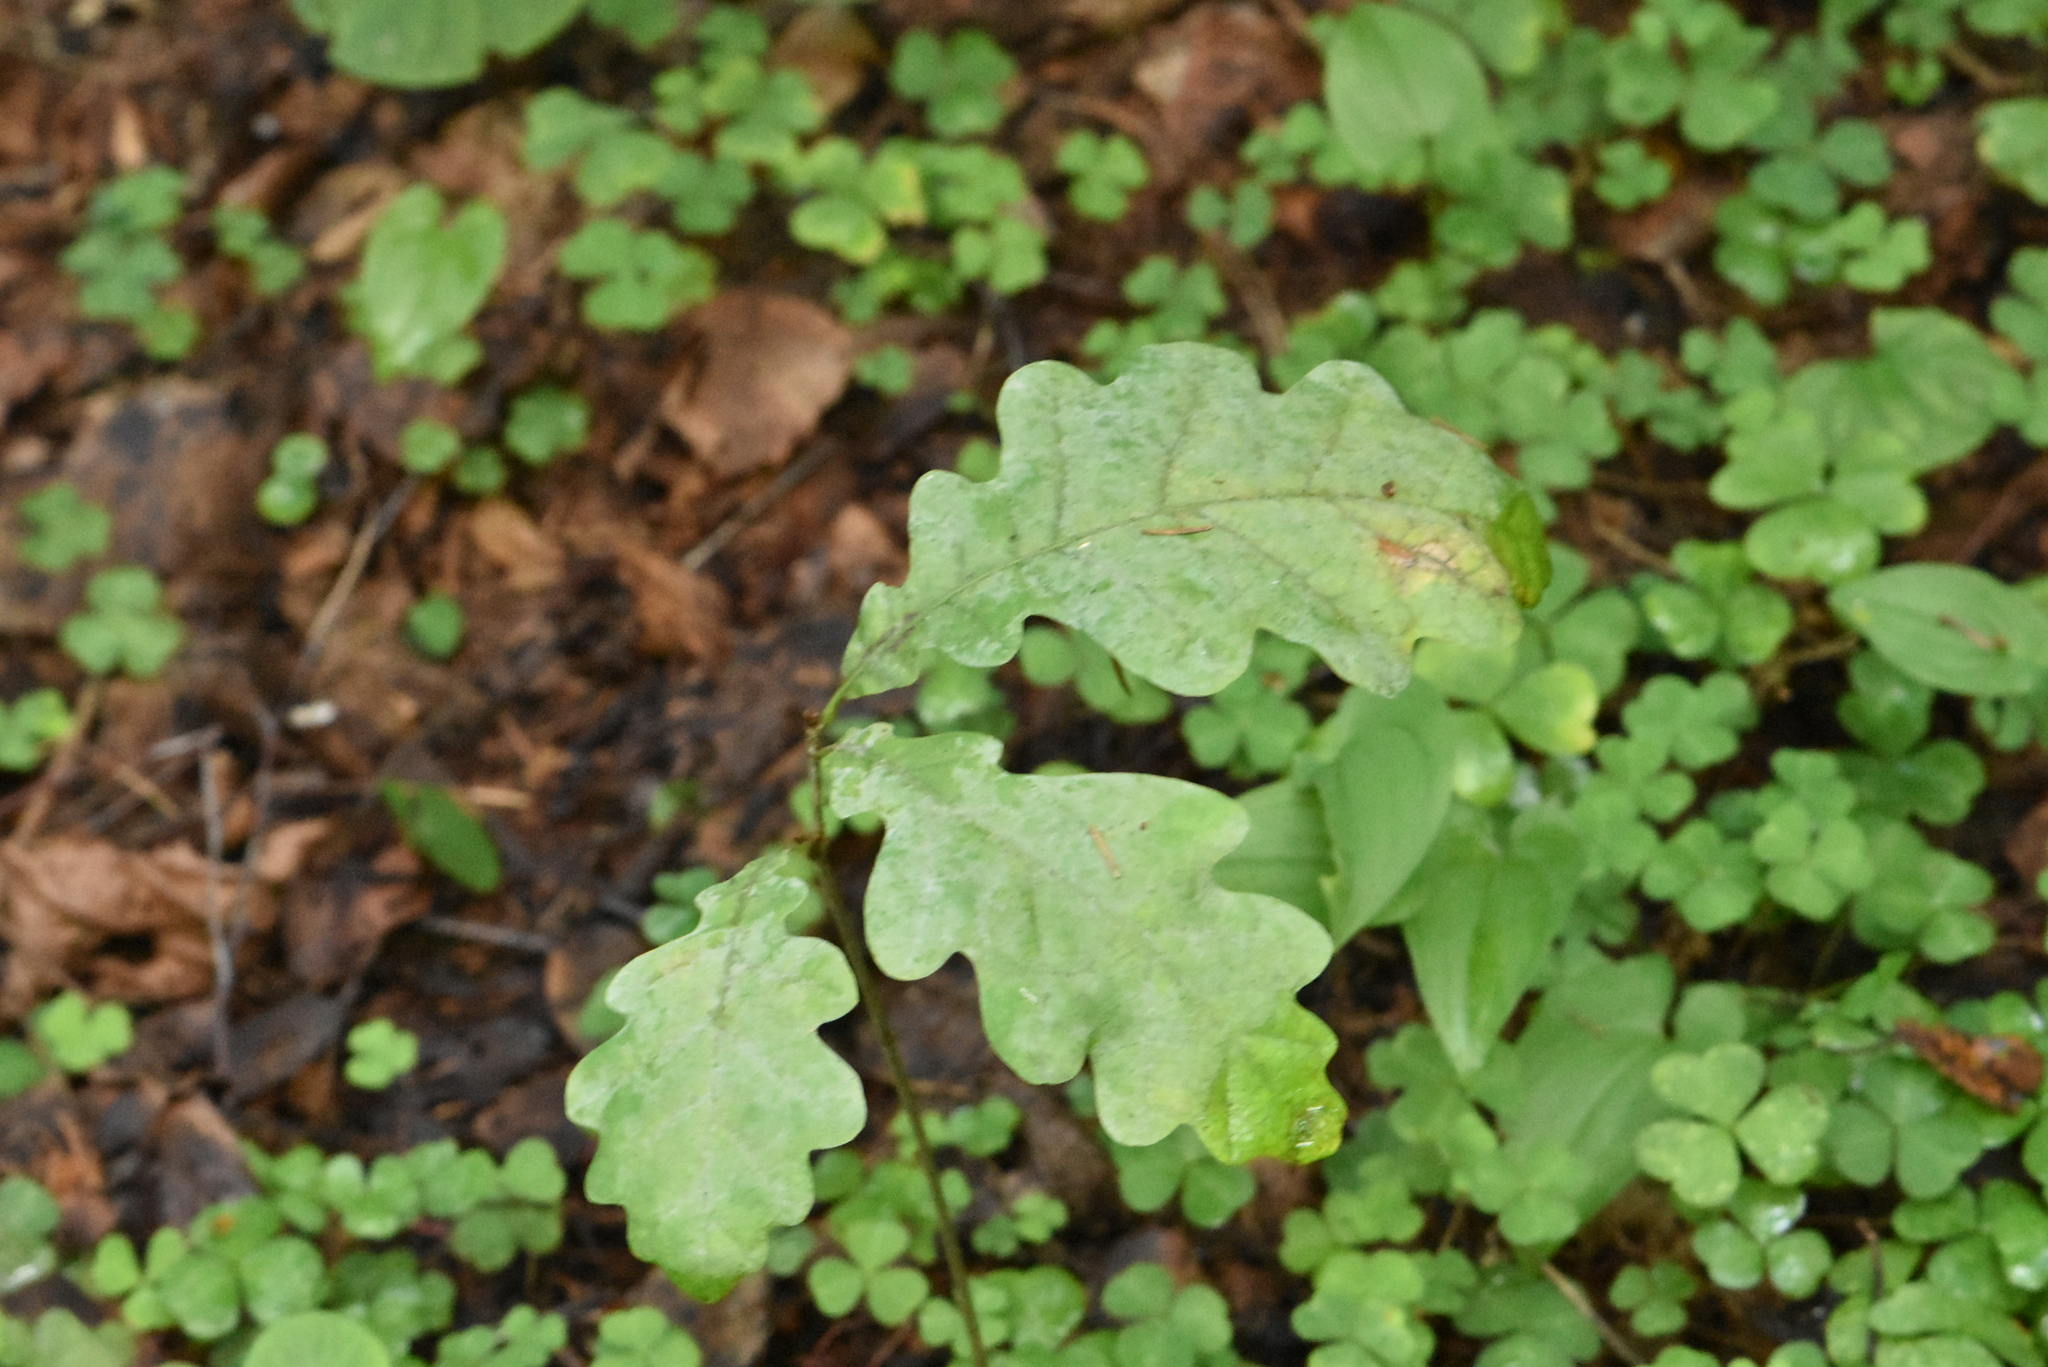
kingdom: Plantae
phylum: Tracheophyta
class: Magnoliopsida
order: Fagales
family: Fagaceae
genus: Quercus
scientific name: Quercus robur
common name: Pedunculate oak
